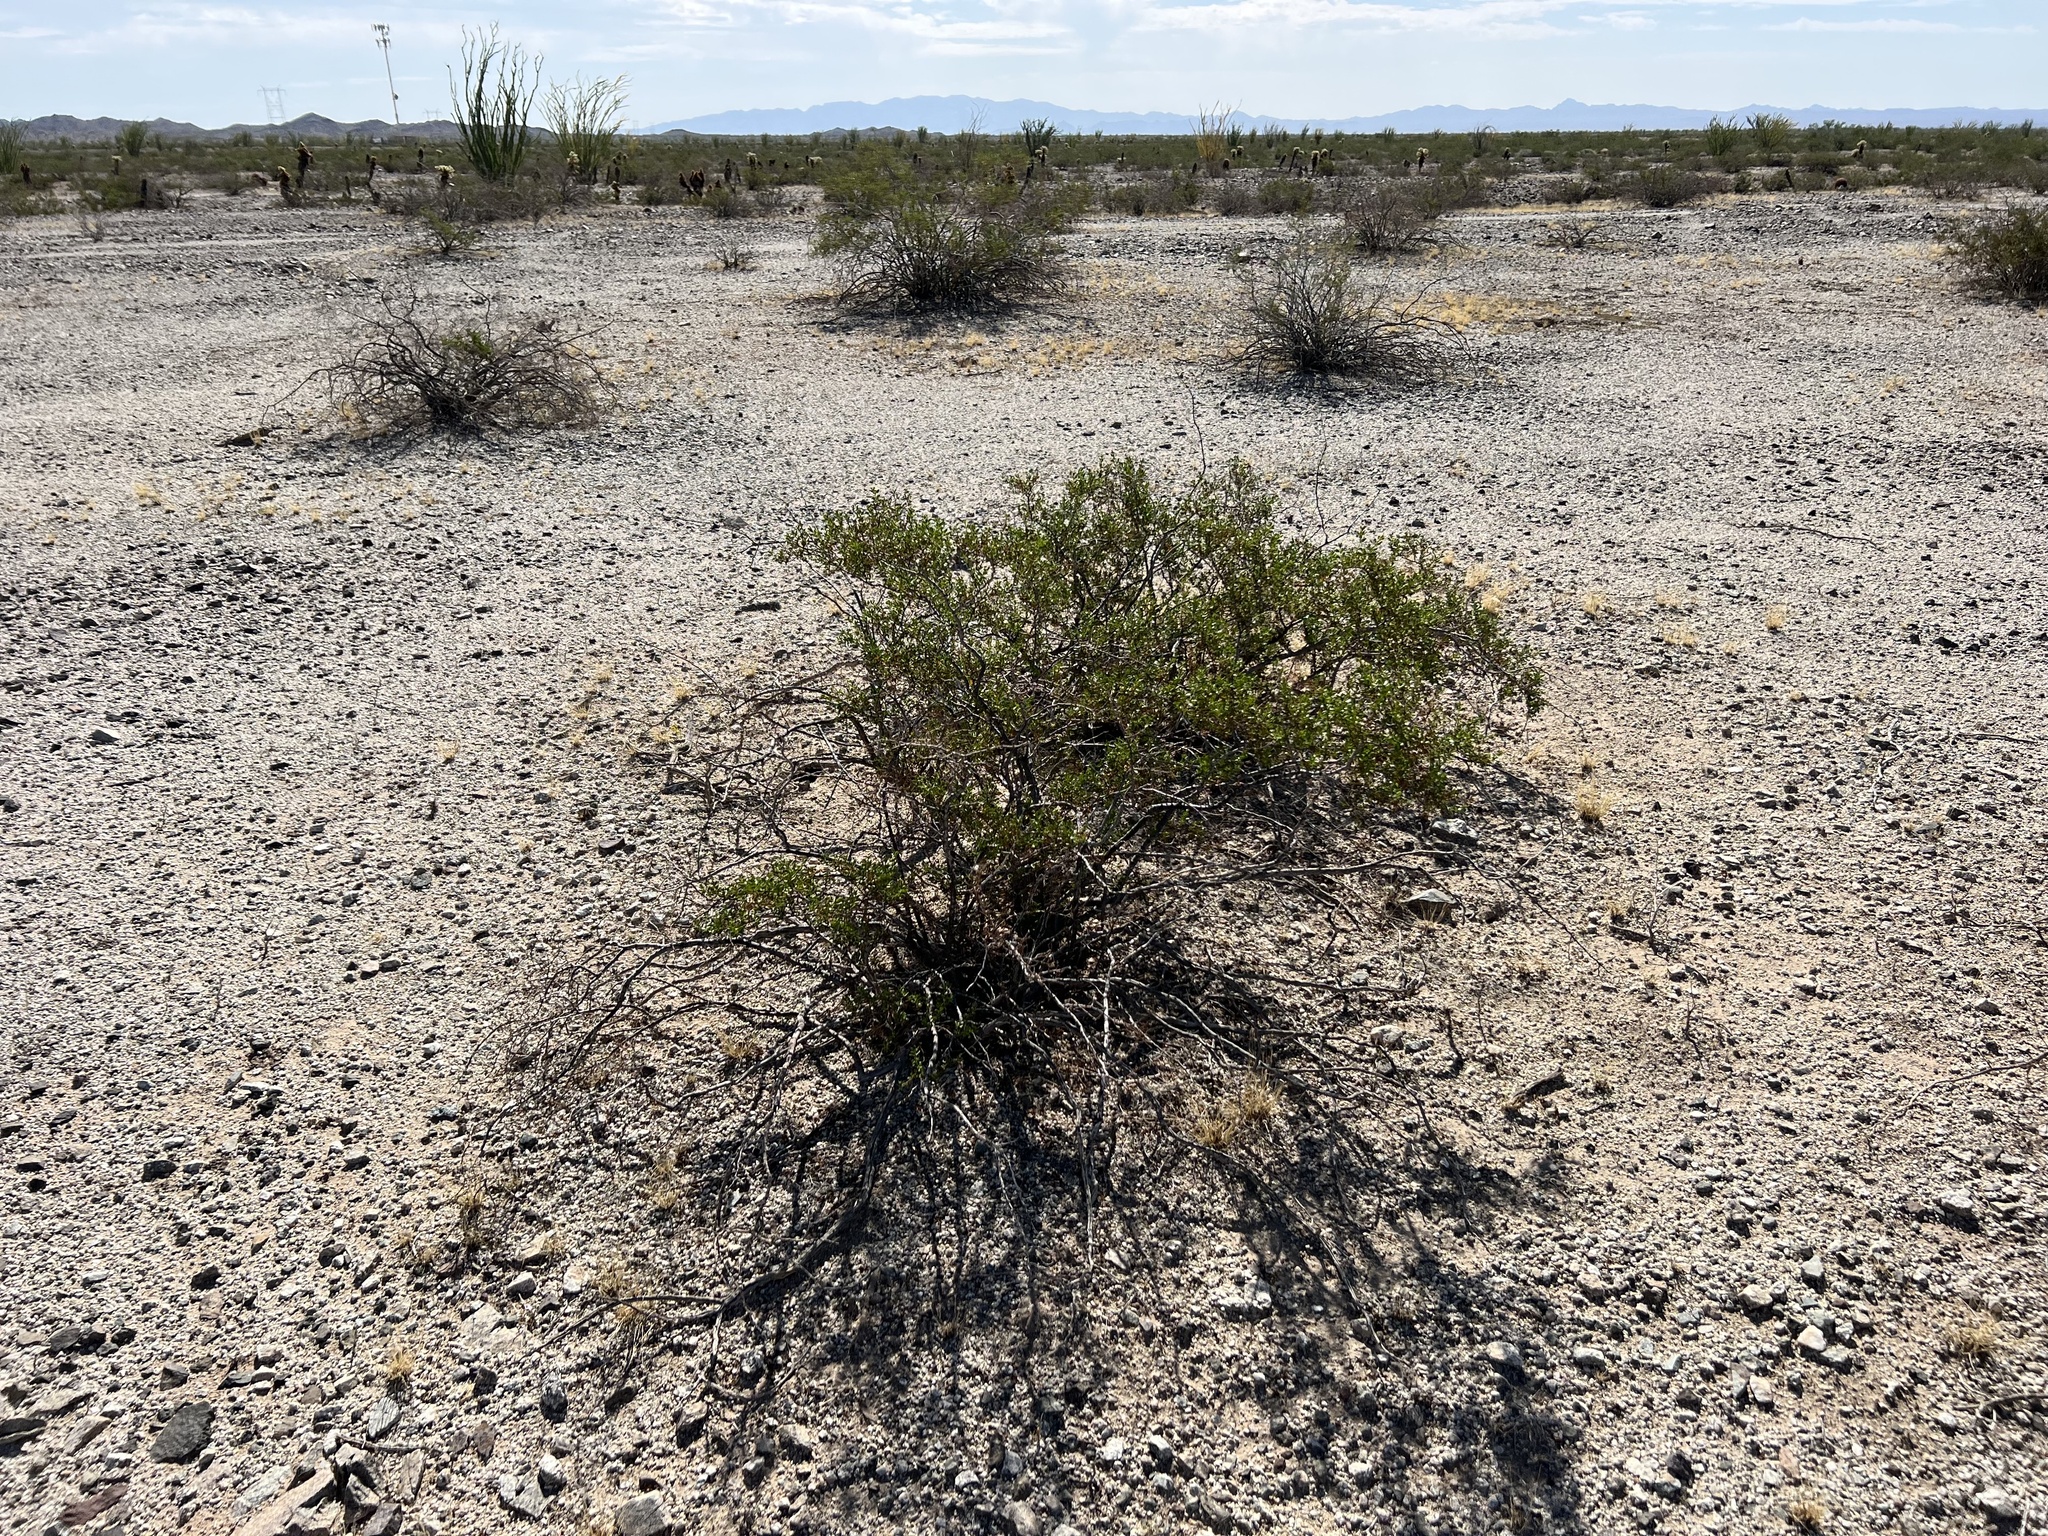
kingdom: Plantae
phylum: Tracheophyta
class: Magnoliopsida
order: Zygophyllales
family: Zygophyllaceae
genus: Larrea
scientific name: Larrea tridentata
